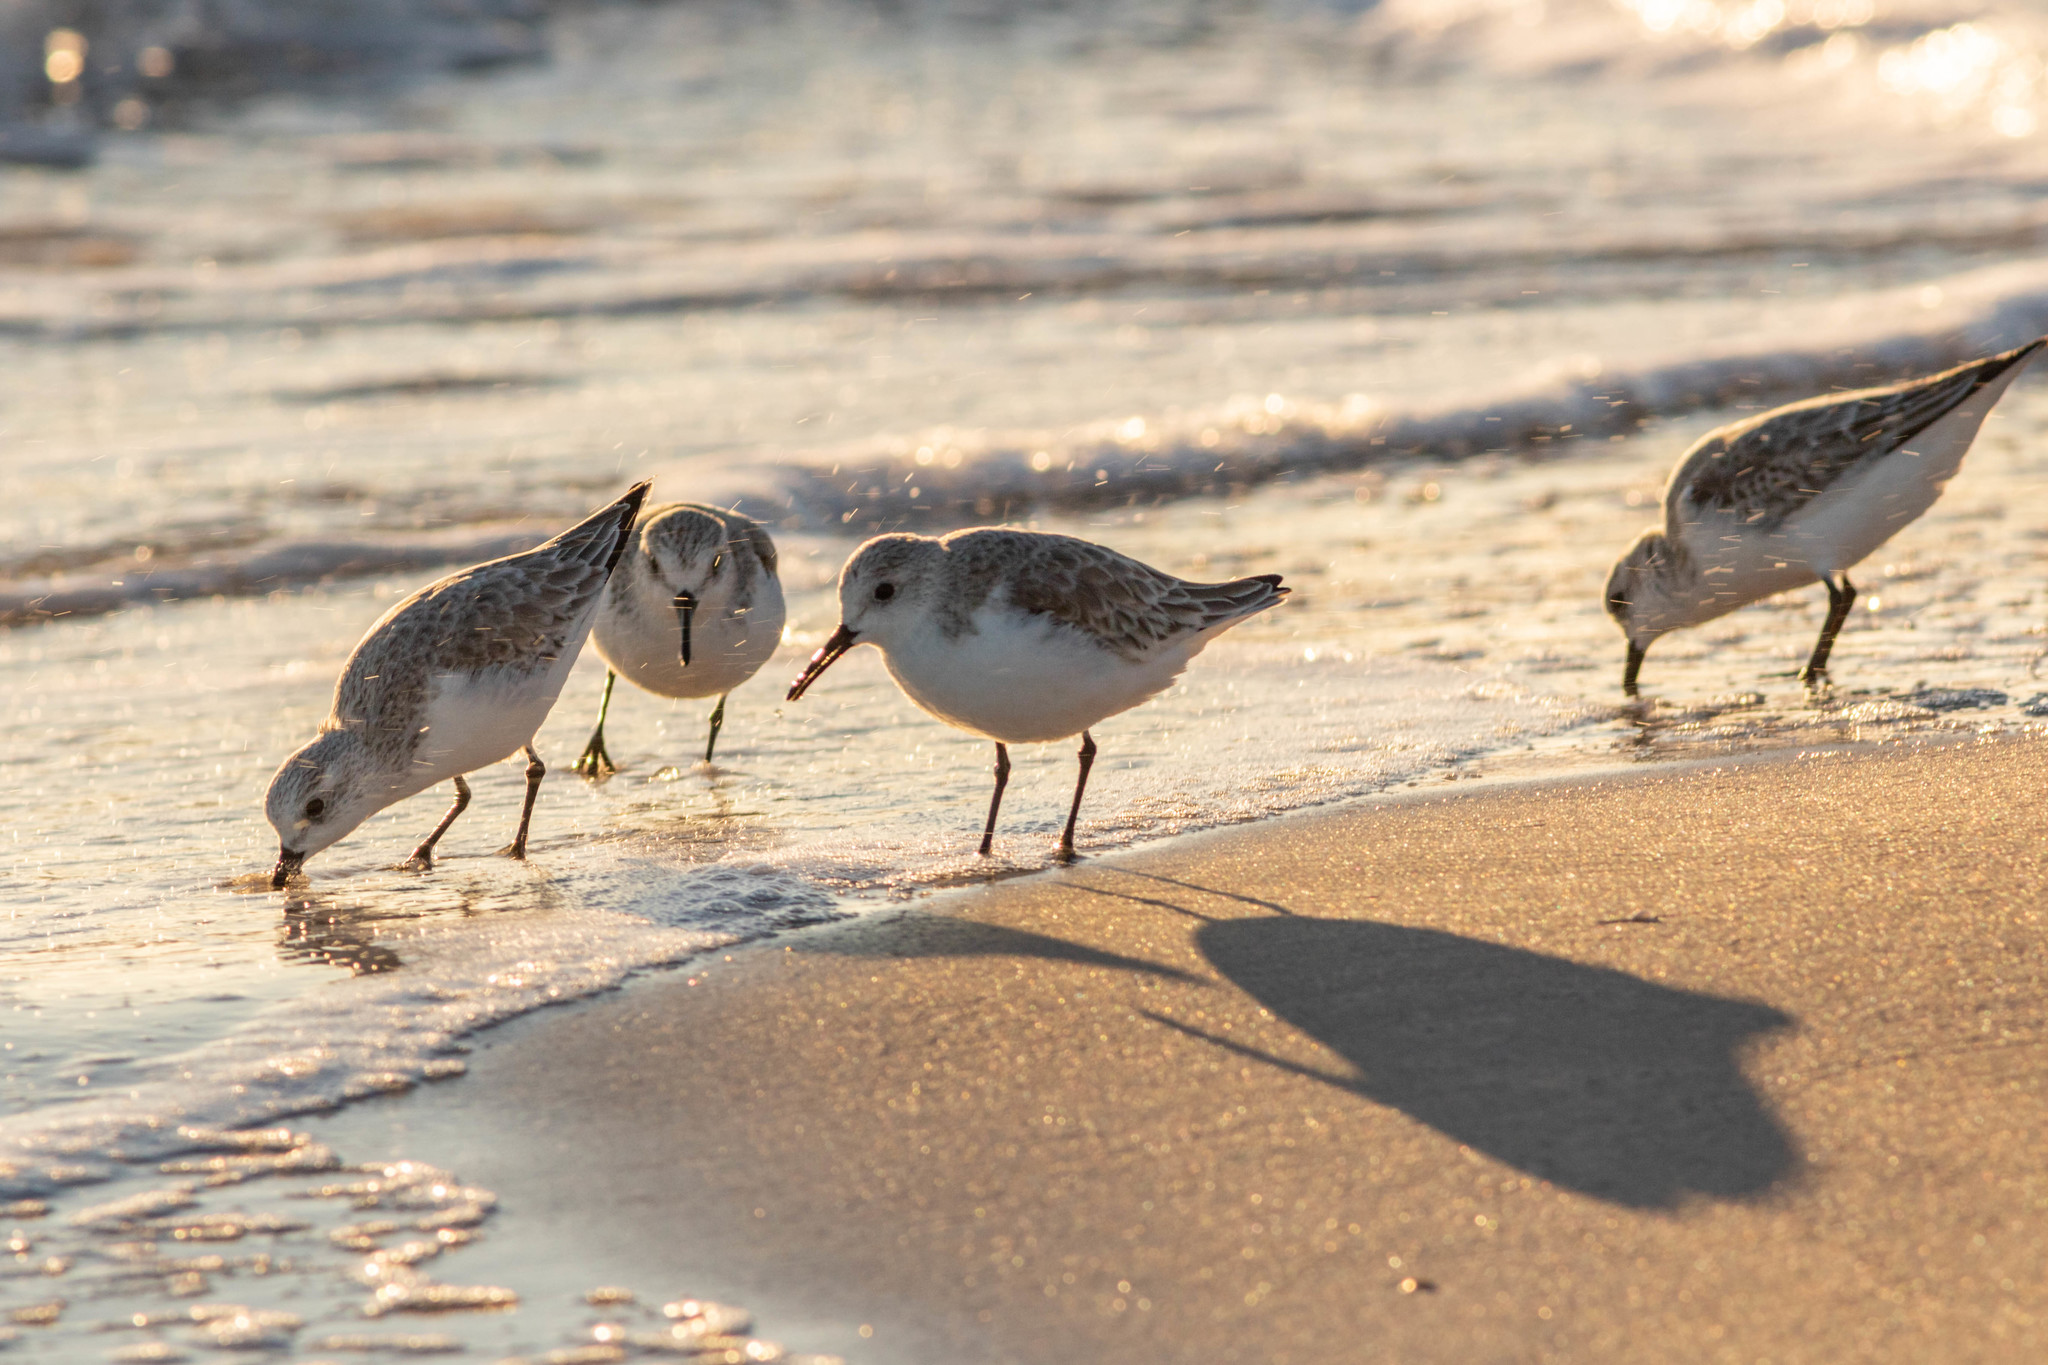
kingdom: Animalia
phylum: Chordata
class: Aves
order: Charadriiformes
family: Scolopacidae
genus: Calidris
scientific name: Calidris alba
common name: Sanderling
